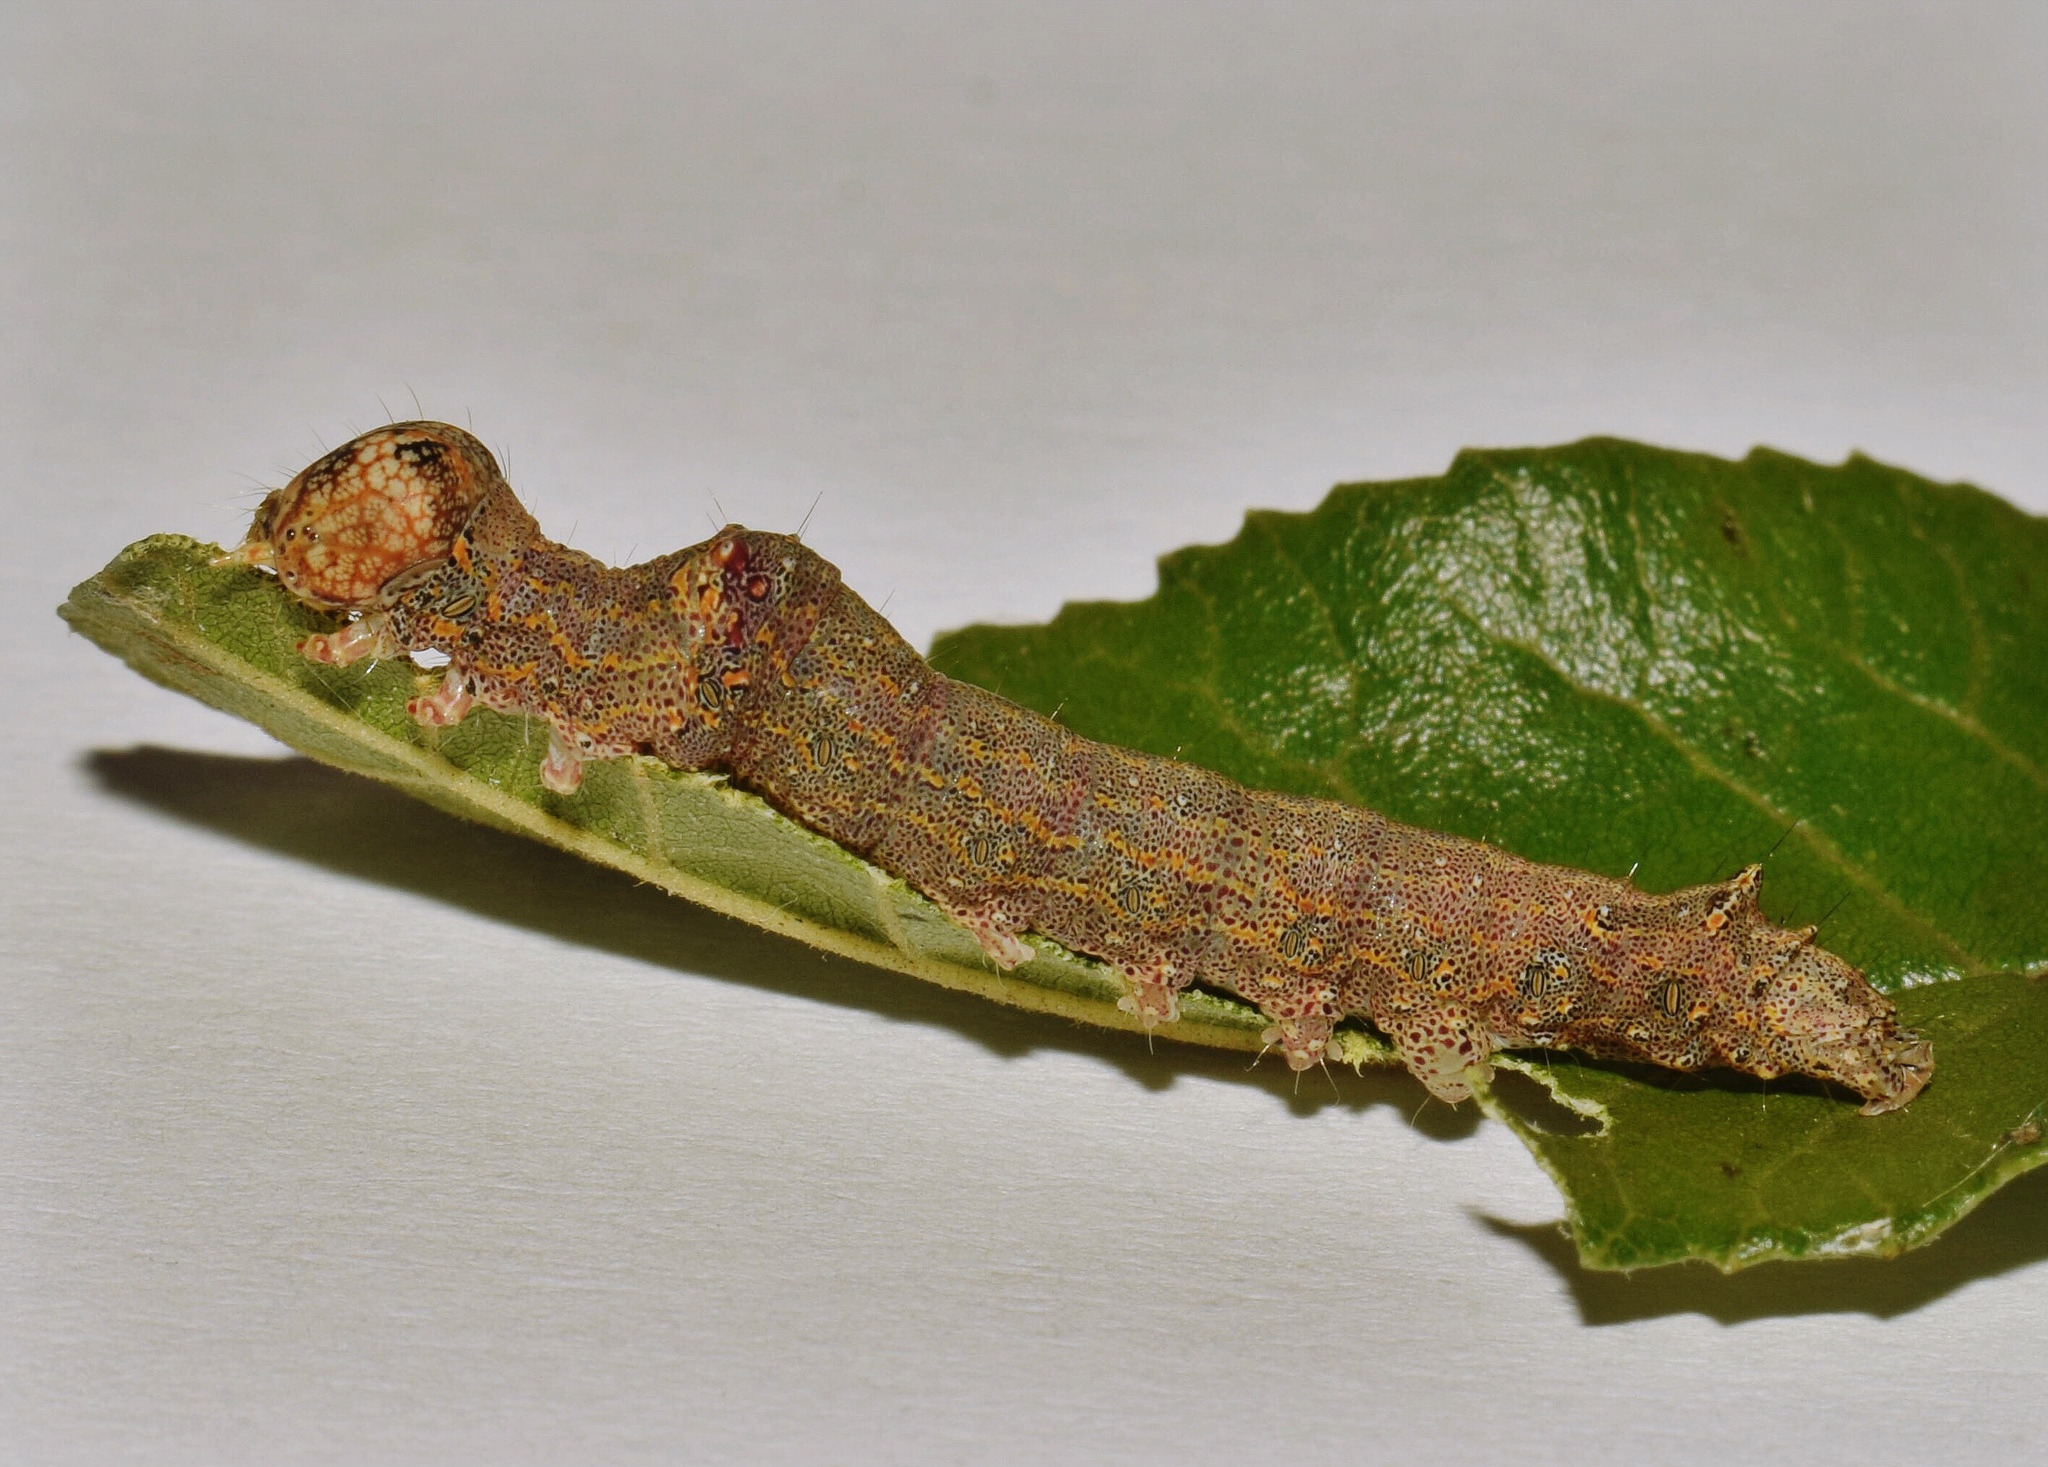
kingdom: Animalia
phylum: Arthropoda
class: Insecta
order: Lepidoptera
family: Erebidae
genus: Serrodes
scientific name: Serrodes campana
